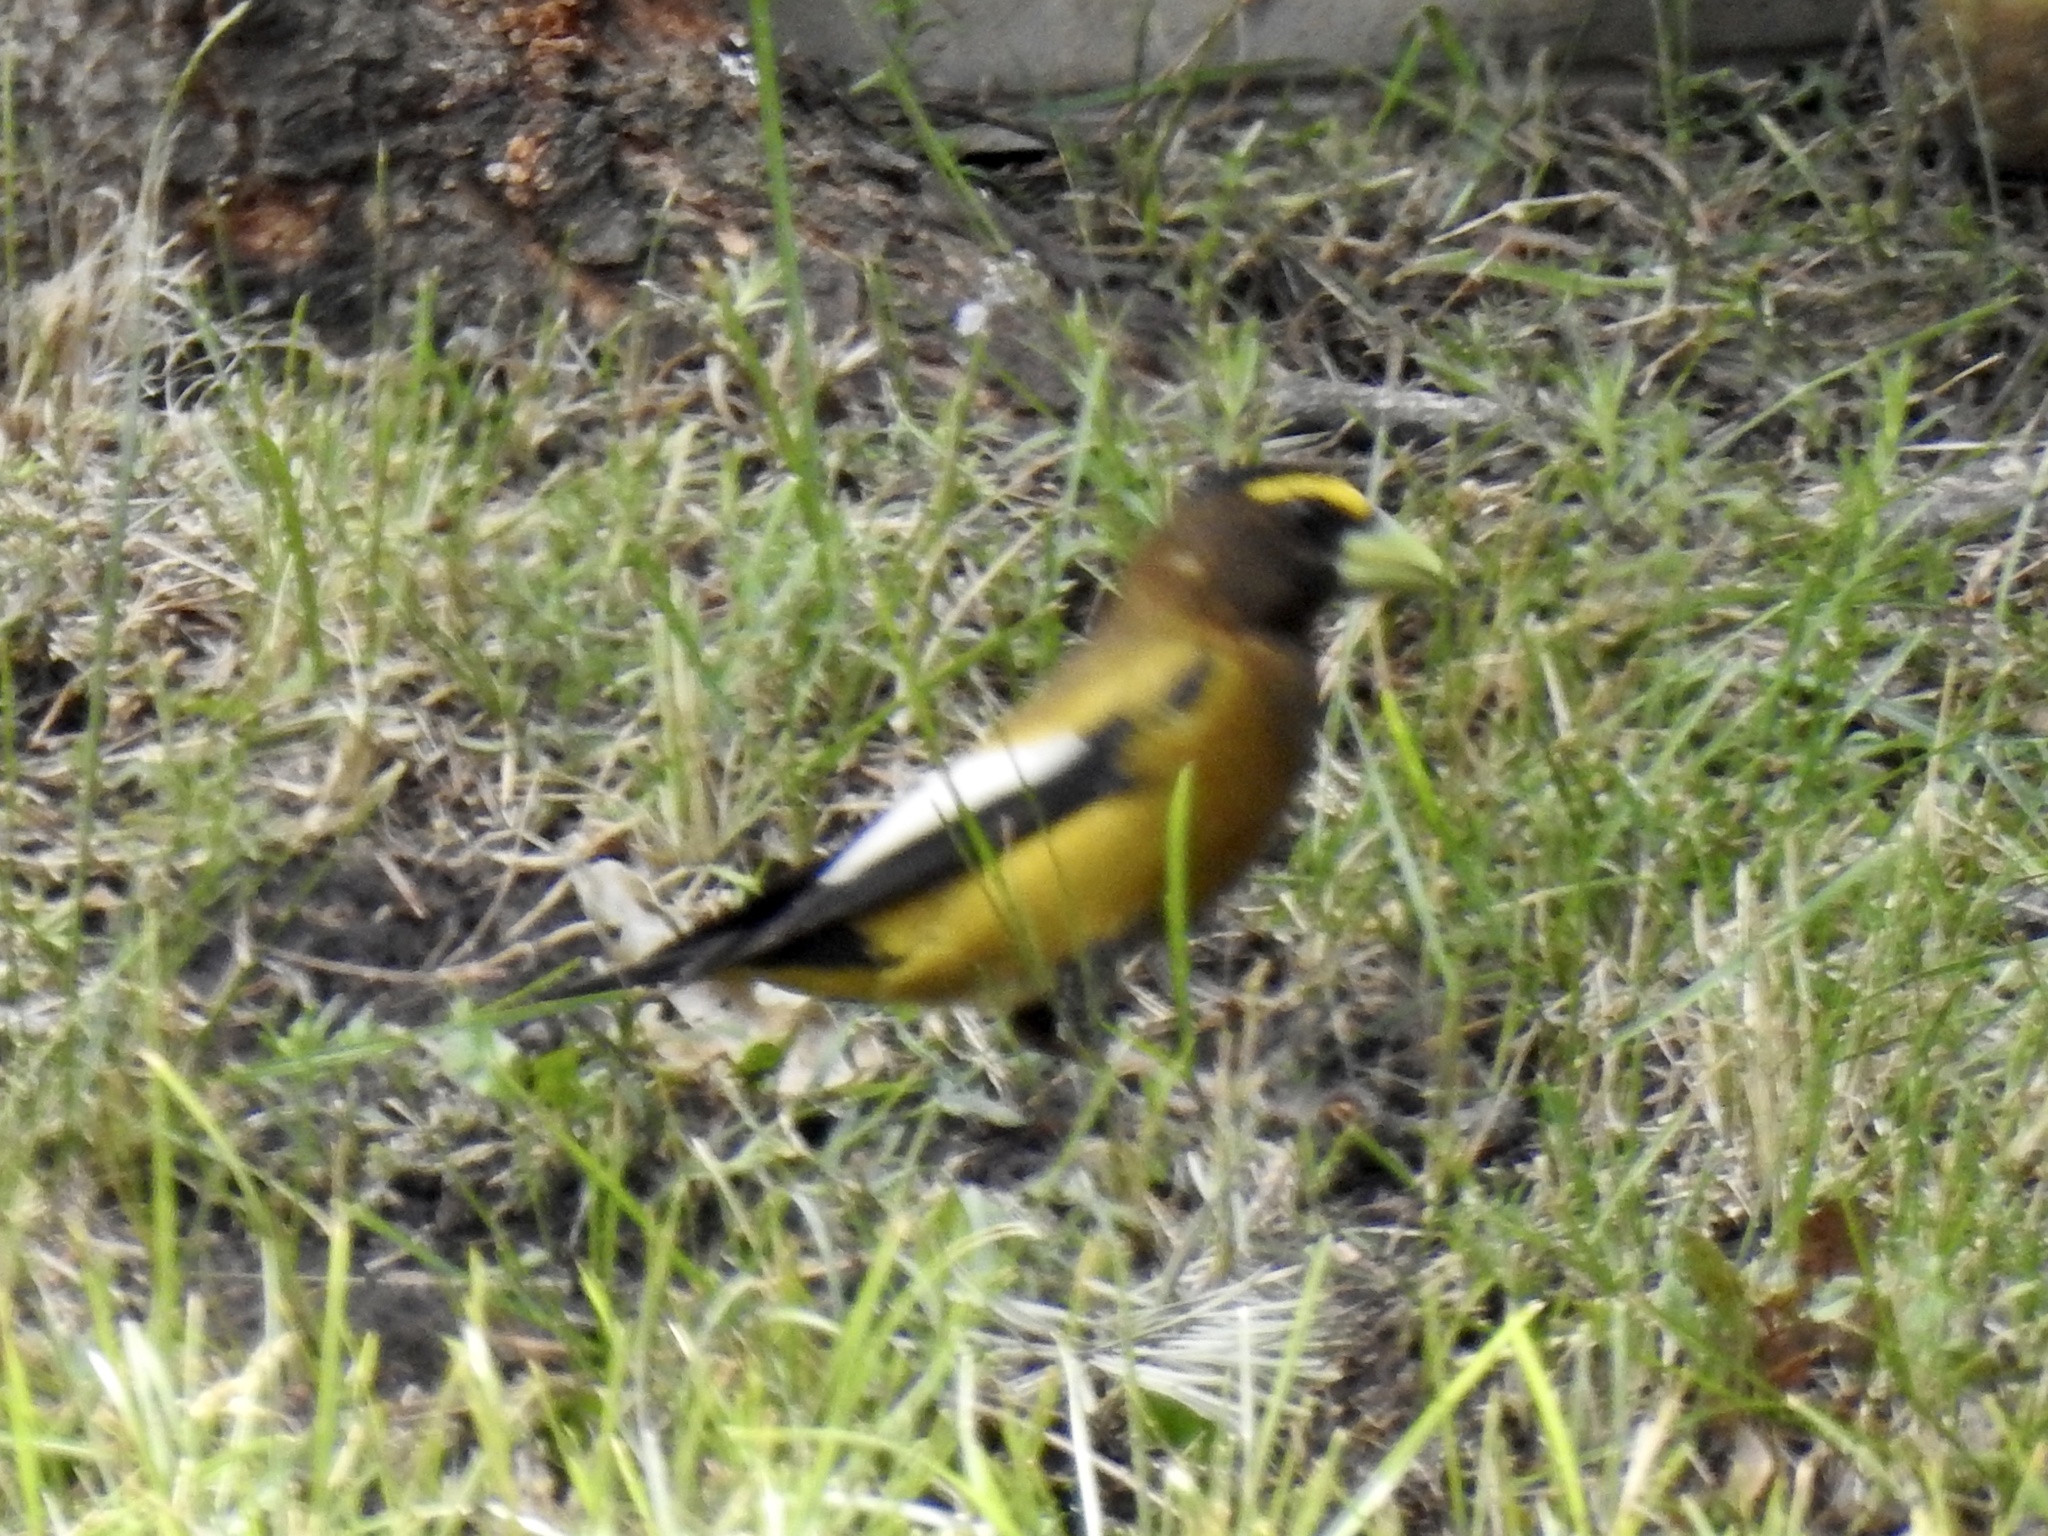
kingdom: Animalia
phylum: Chordata
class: Aves
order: Passeriformes
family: Fringillidae
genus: Hesperiphona
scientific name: Hesperiphona vespertina
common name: Evening grosbeak
